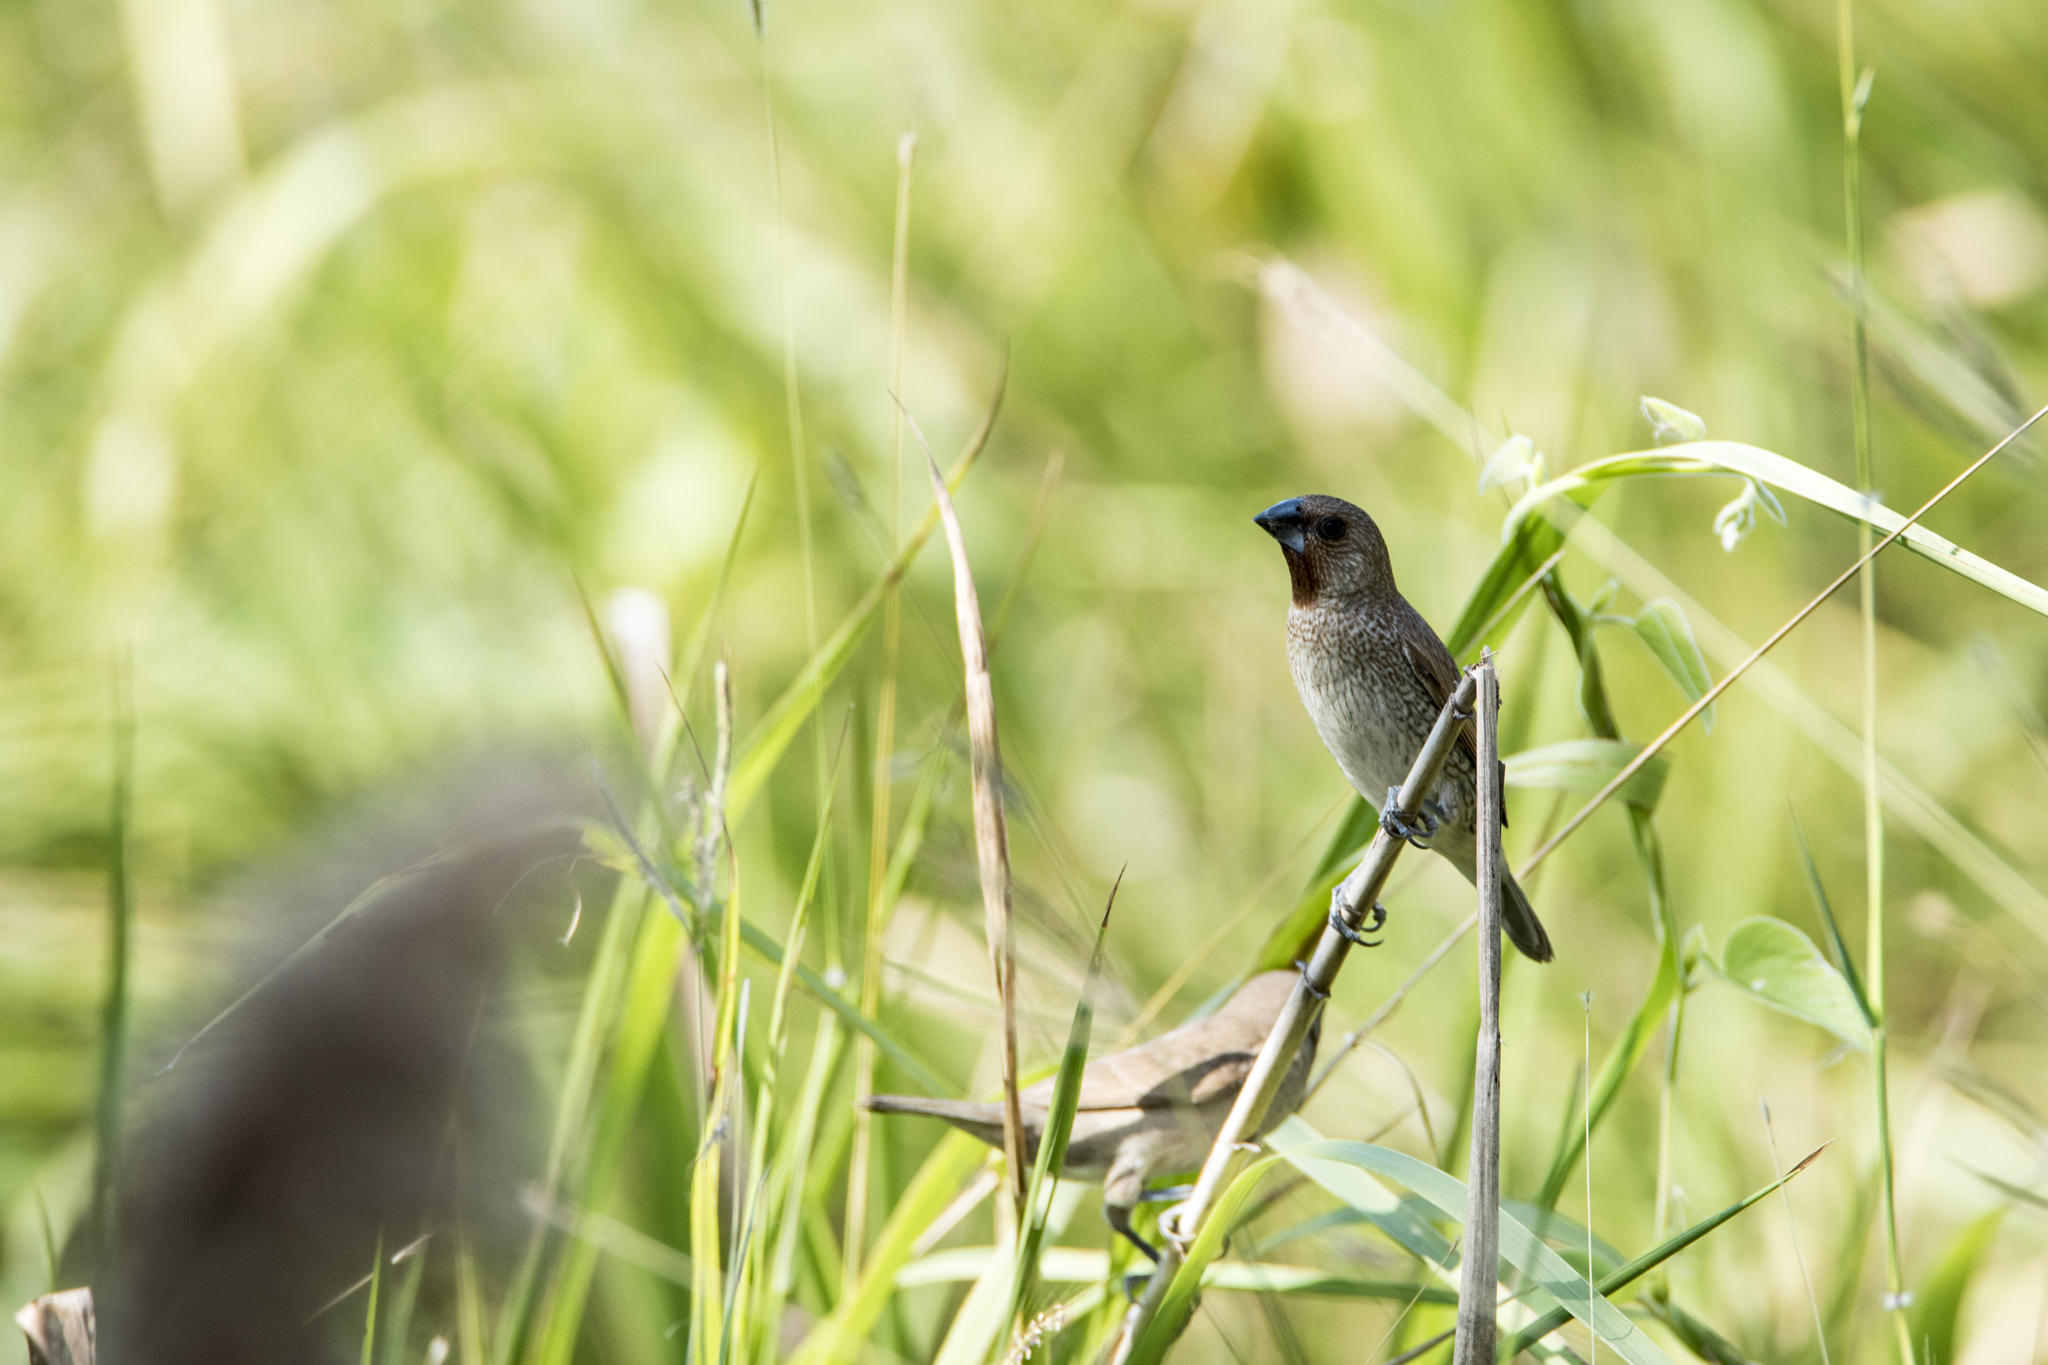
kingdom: Animalia
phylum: Chordata
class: Aves
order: Passeriformes
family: Estrildidae
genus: Lonchura
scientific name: Lonchura punctulata
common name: Scaly-breasted munia
